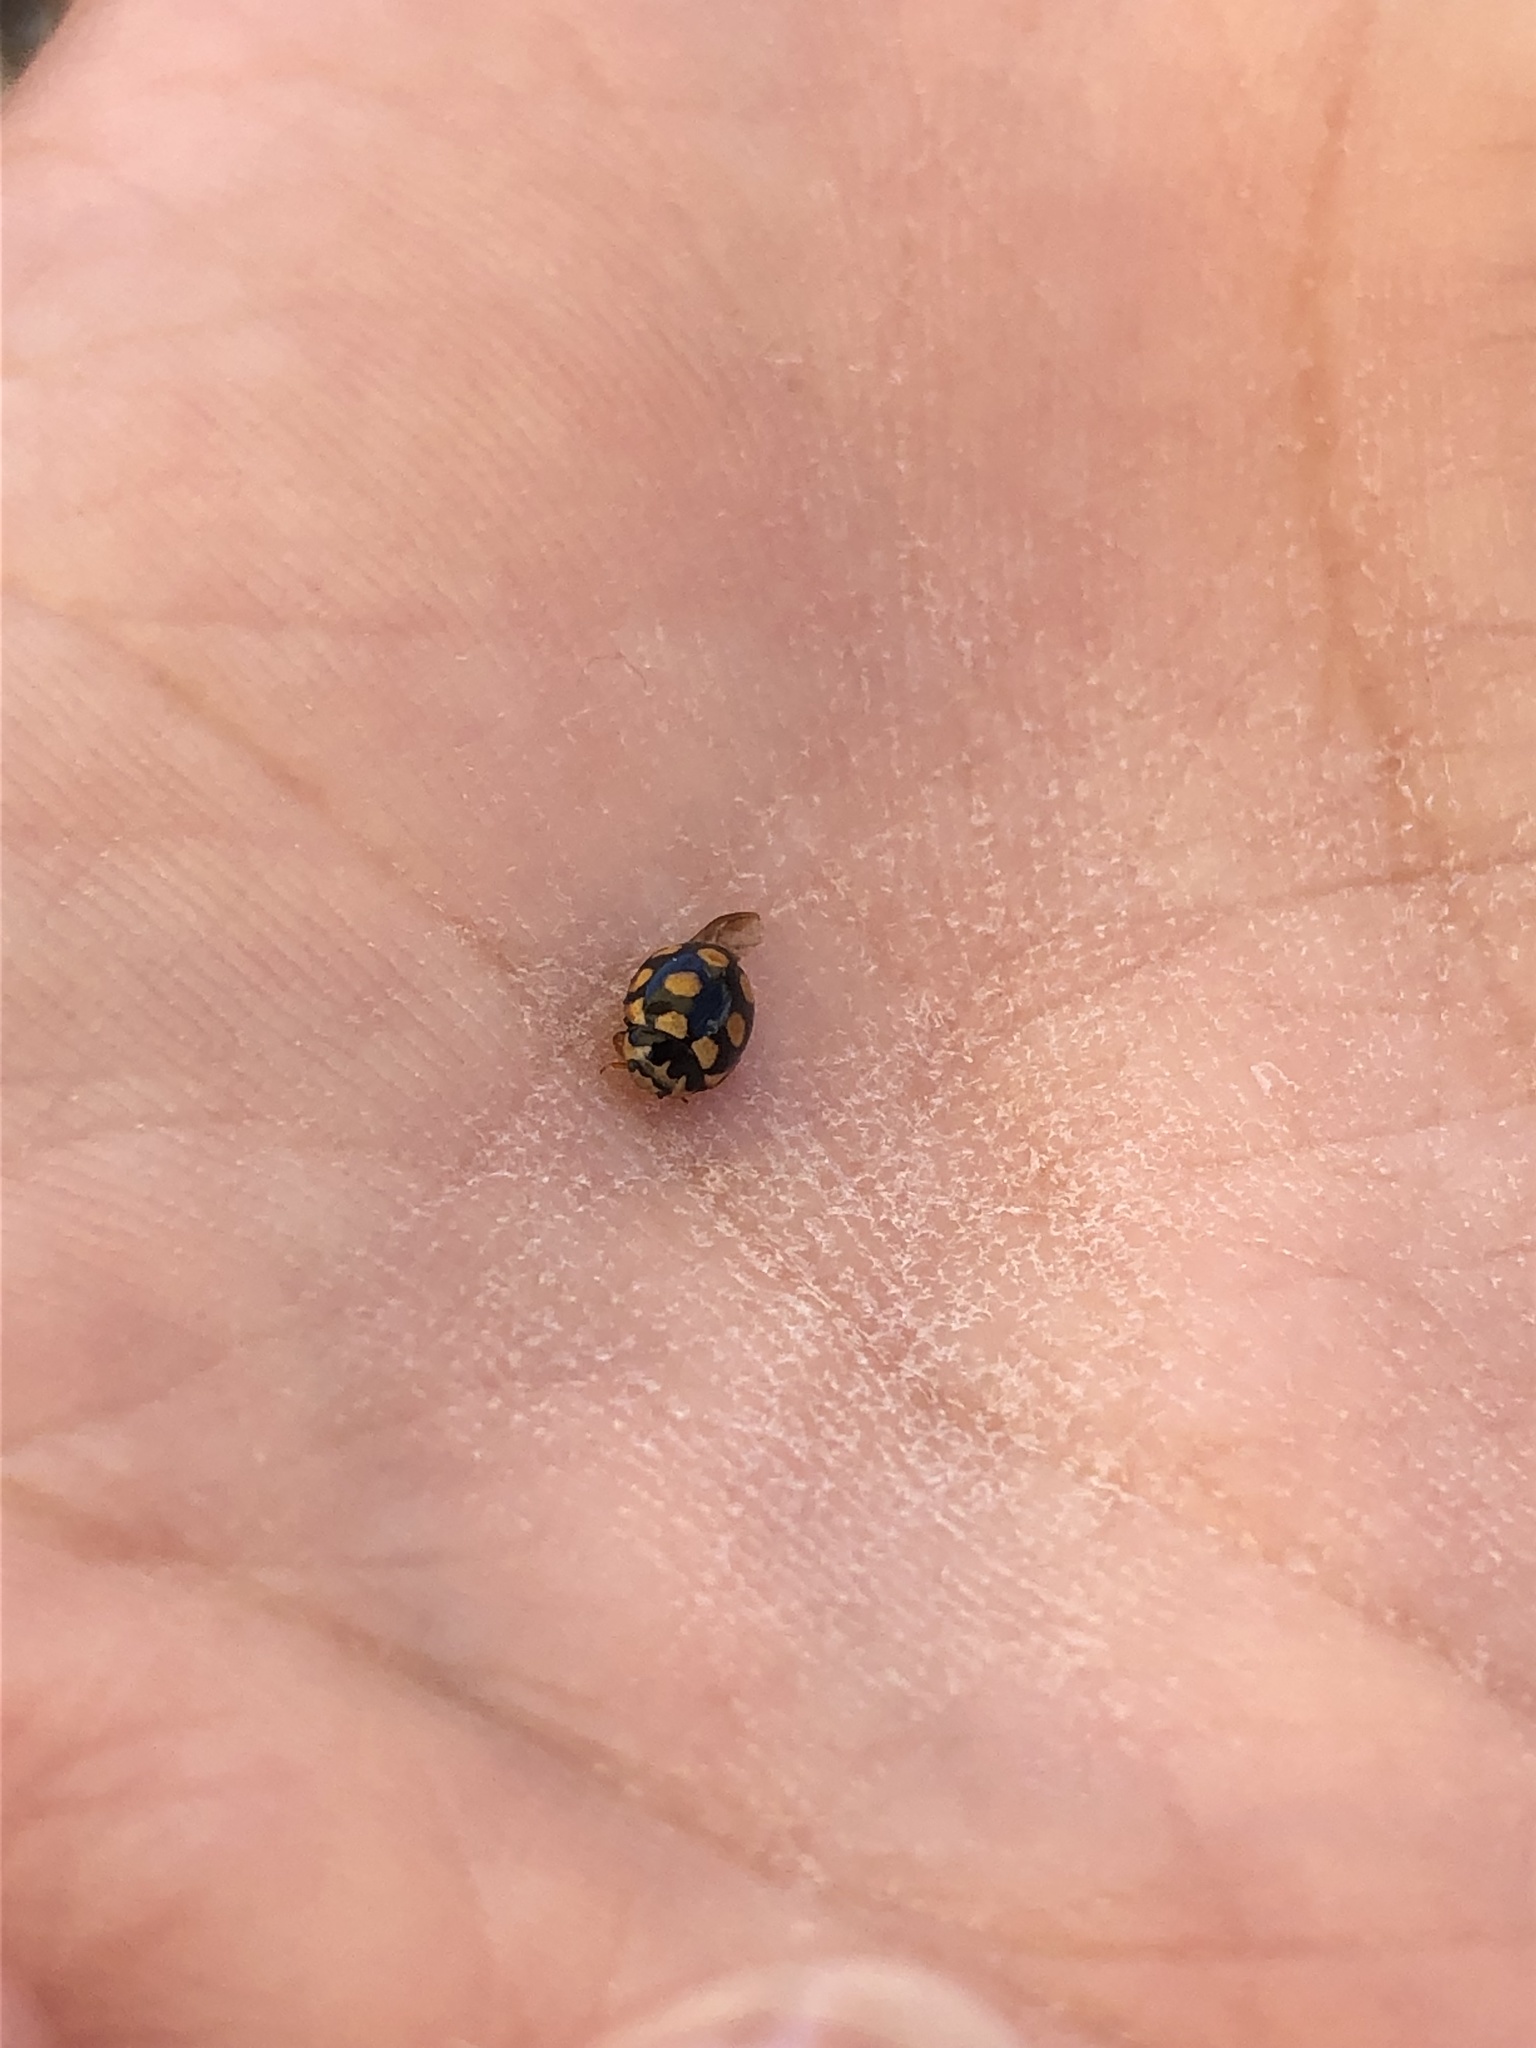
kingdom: Animalia
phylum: Arthropoda
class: Insecta
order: Coleoptera
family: Coccinellidae
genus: Coccinula
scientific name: Coccinula quatuordecimpustulata
